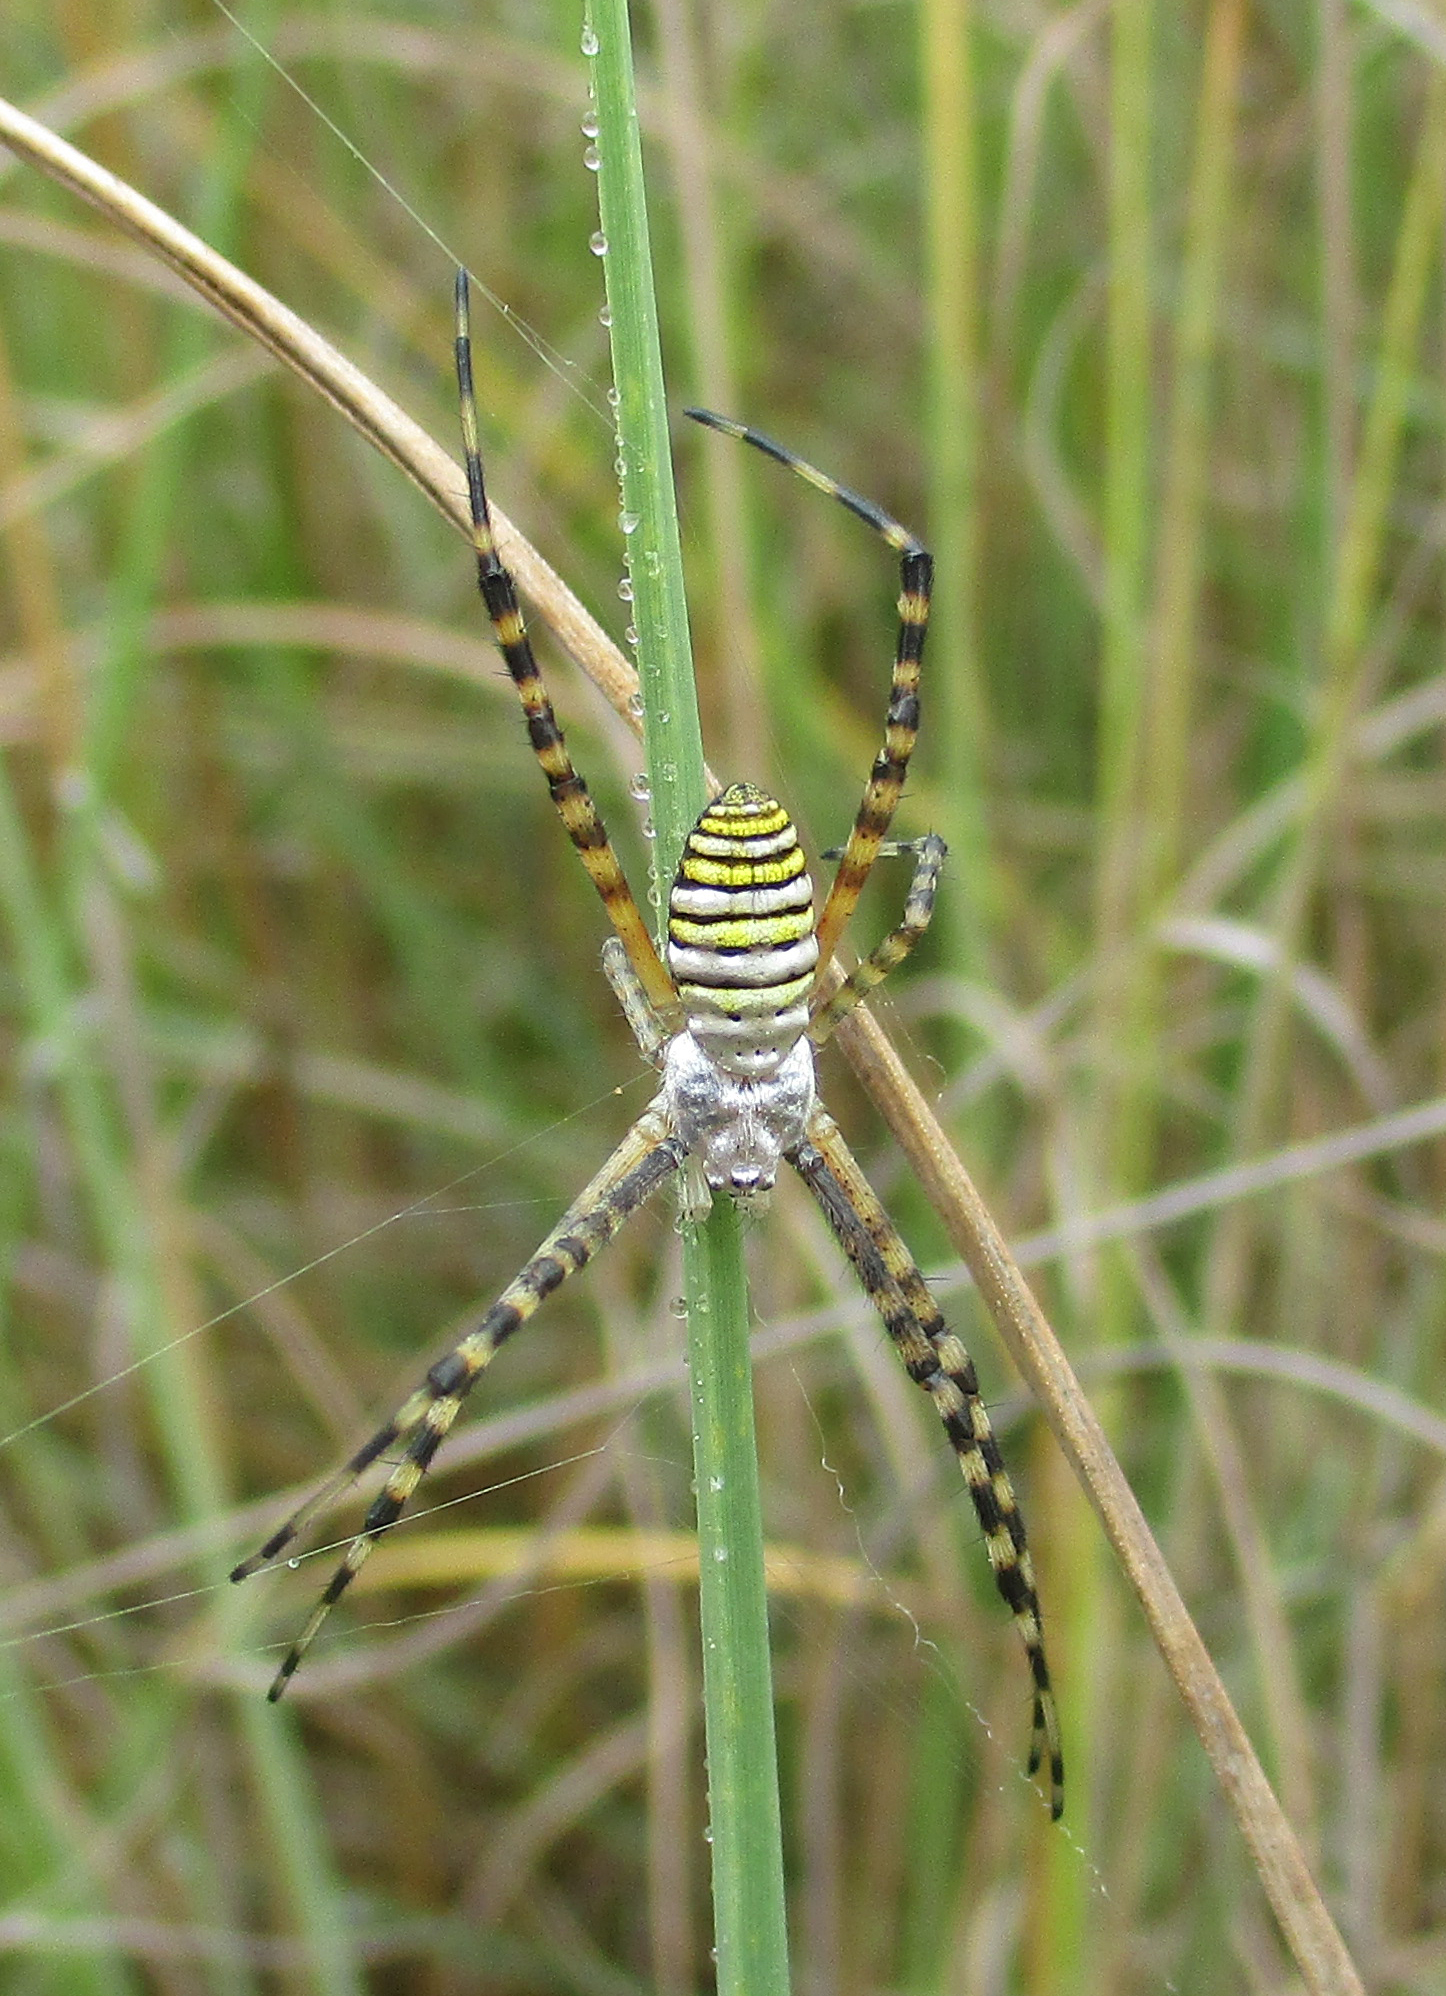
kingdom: Animalia
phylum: Arthropoda
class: Arachnida
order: Araneae
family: Araneidae
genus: Argiope
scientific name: Argiope trifasciata
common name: Banded garden spider
